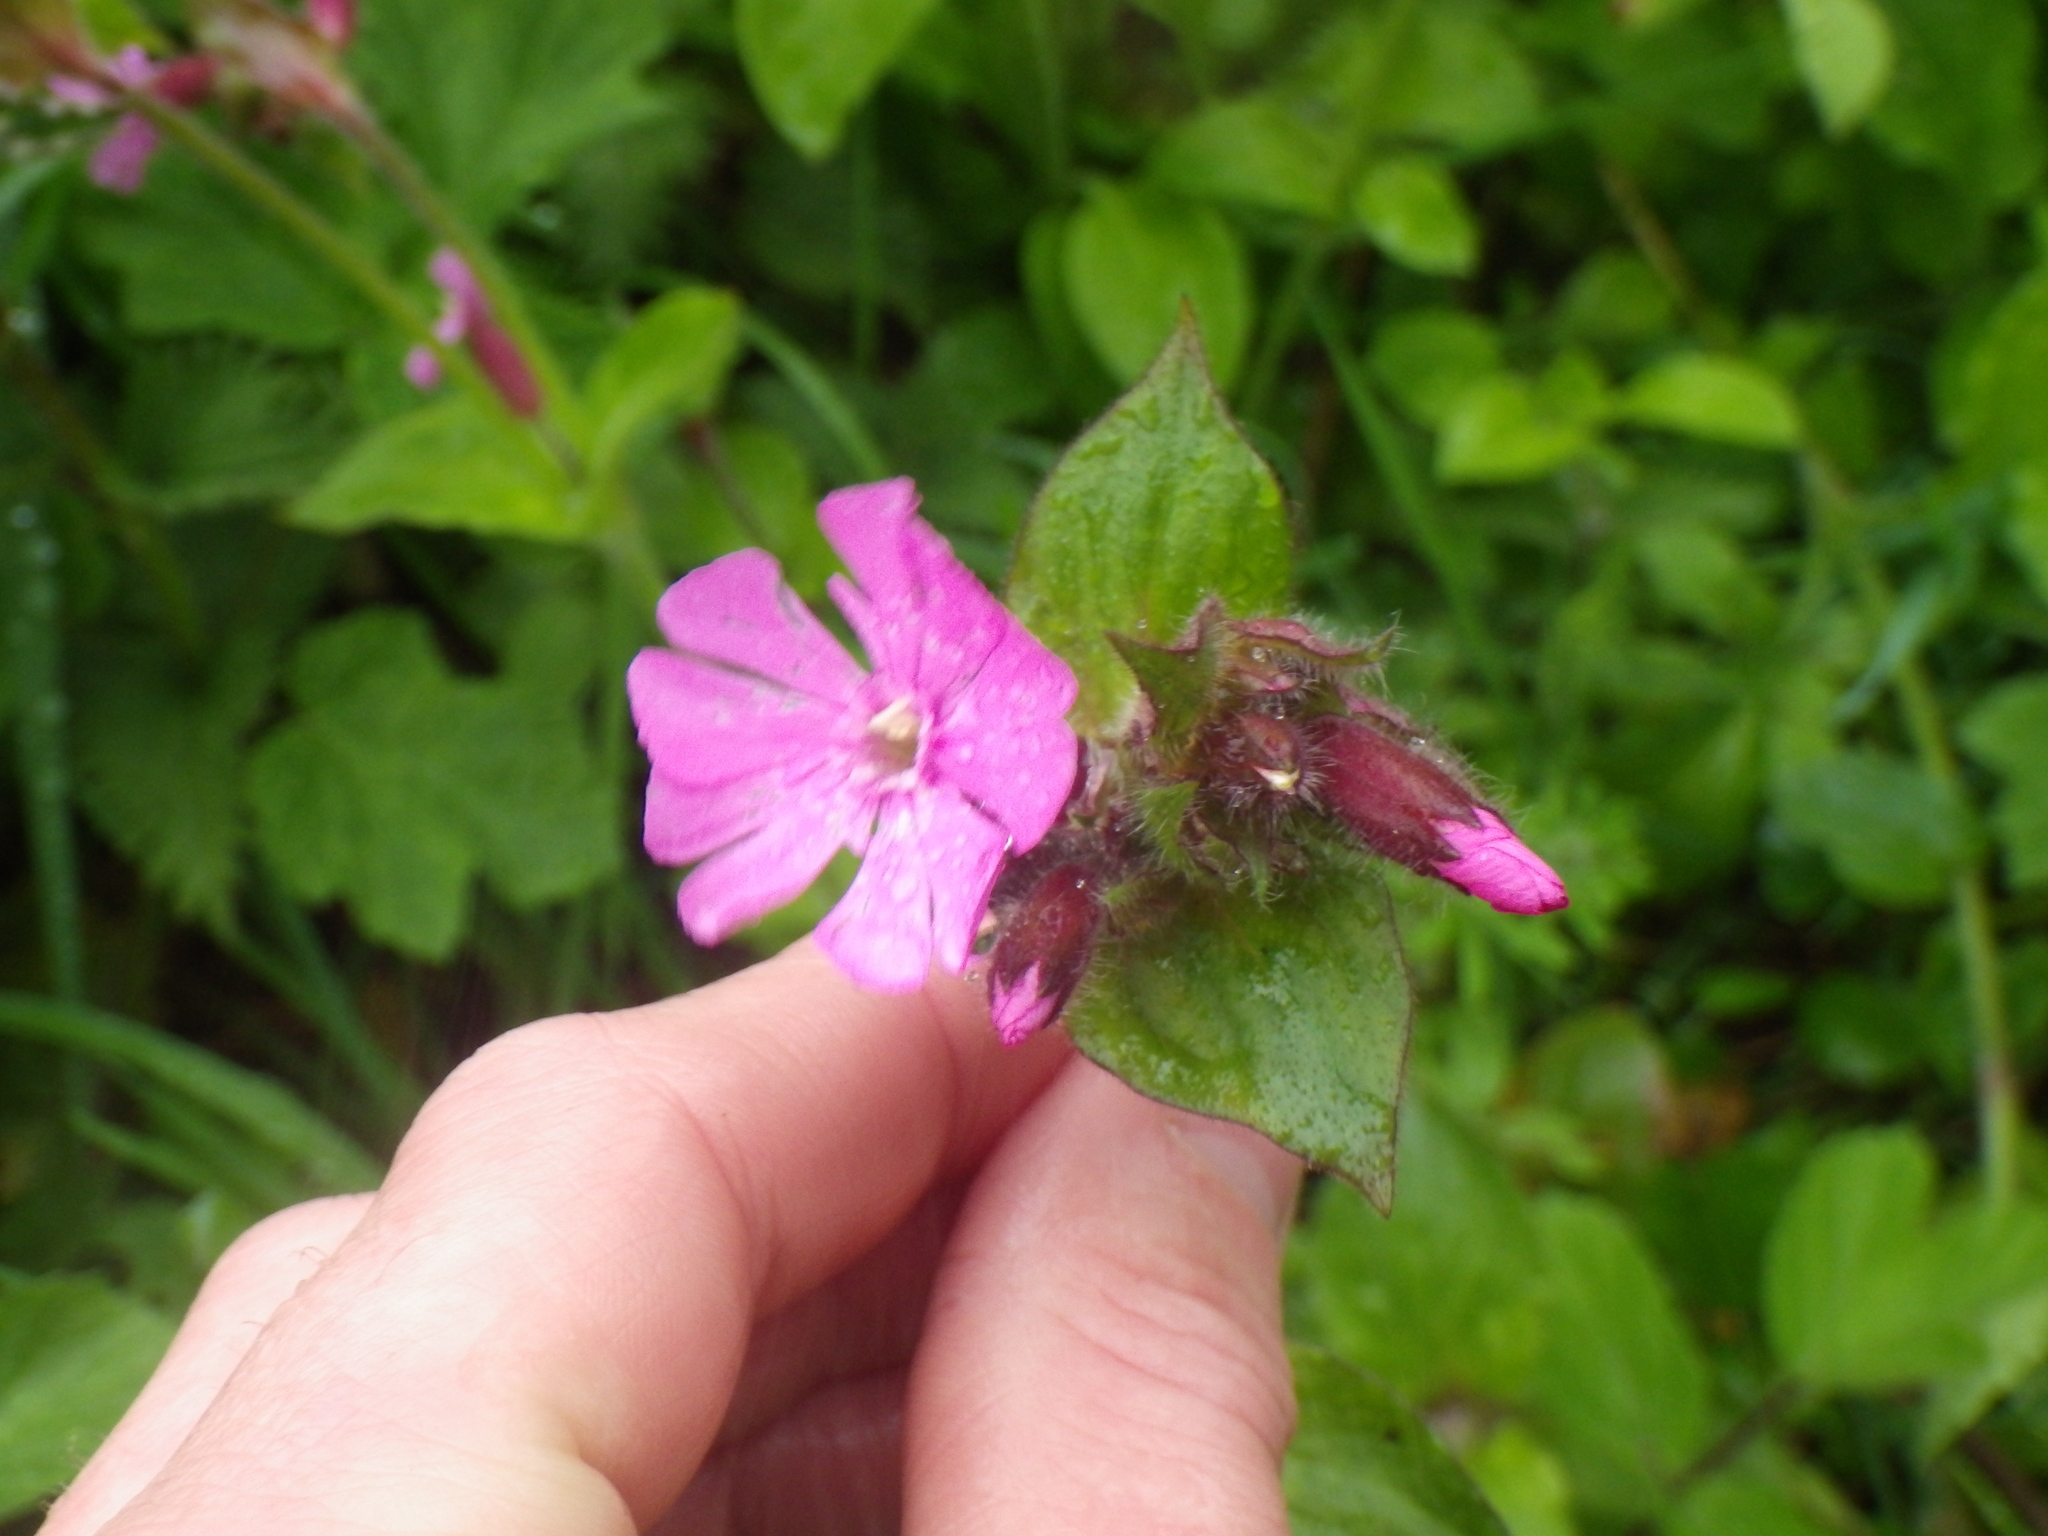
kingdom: Plantae
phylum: Tracheophyta
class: Magnoliopsida
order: Caryophyllales
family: Caryophyllaceae
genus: Silene
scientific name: Silene dioica
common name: Red campion
